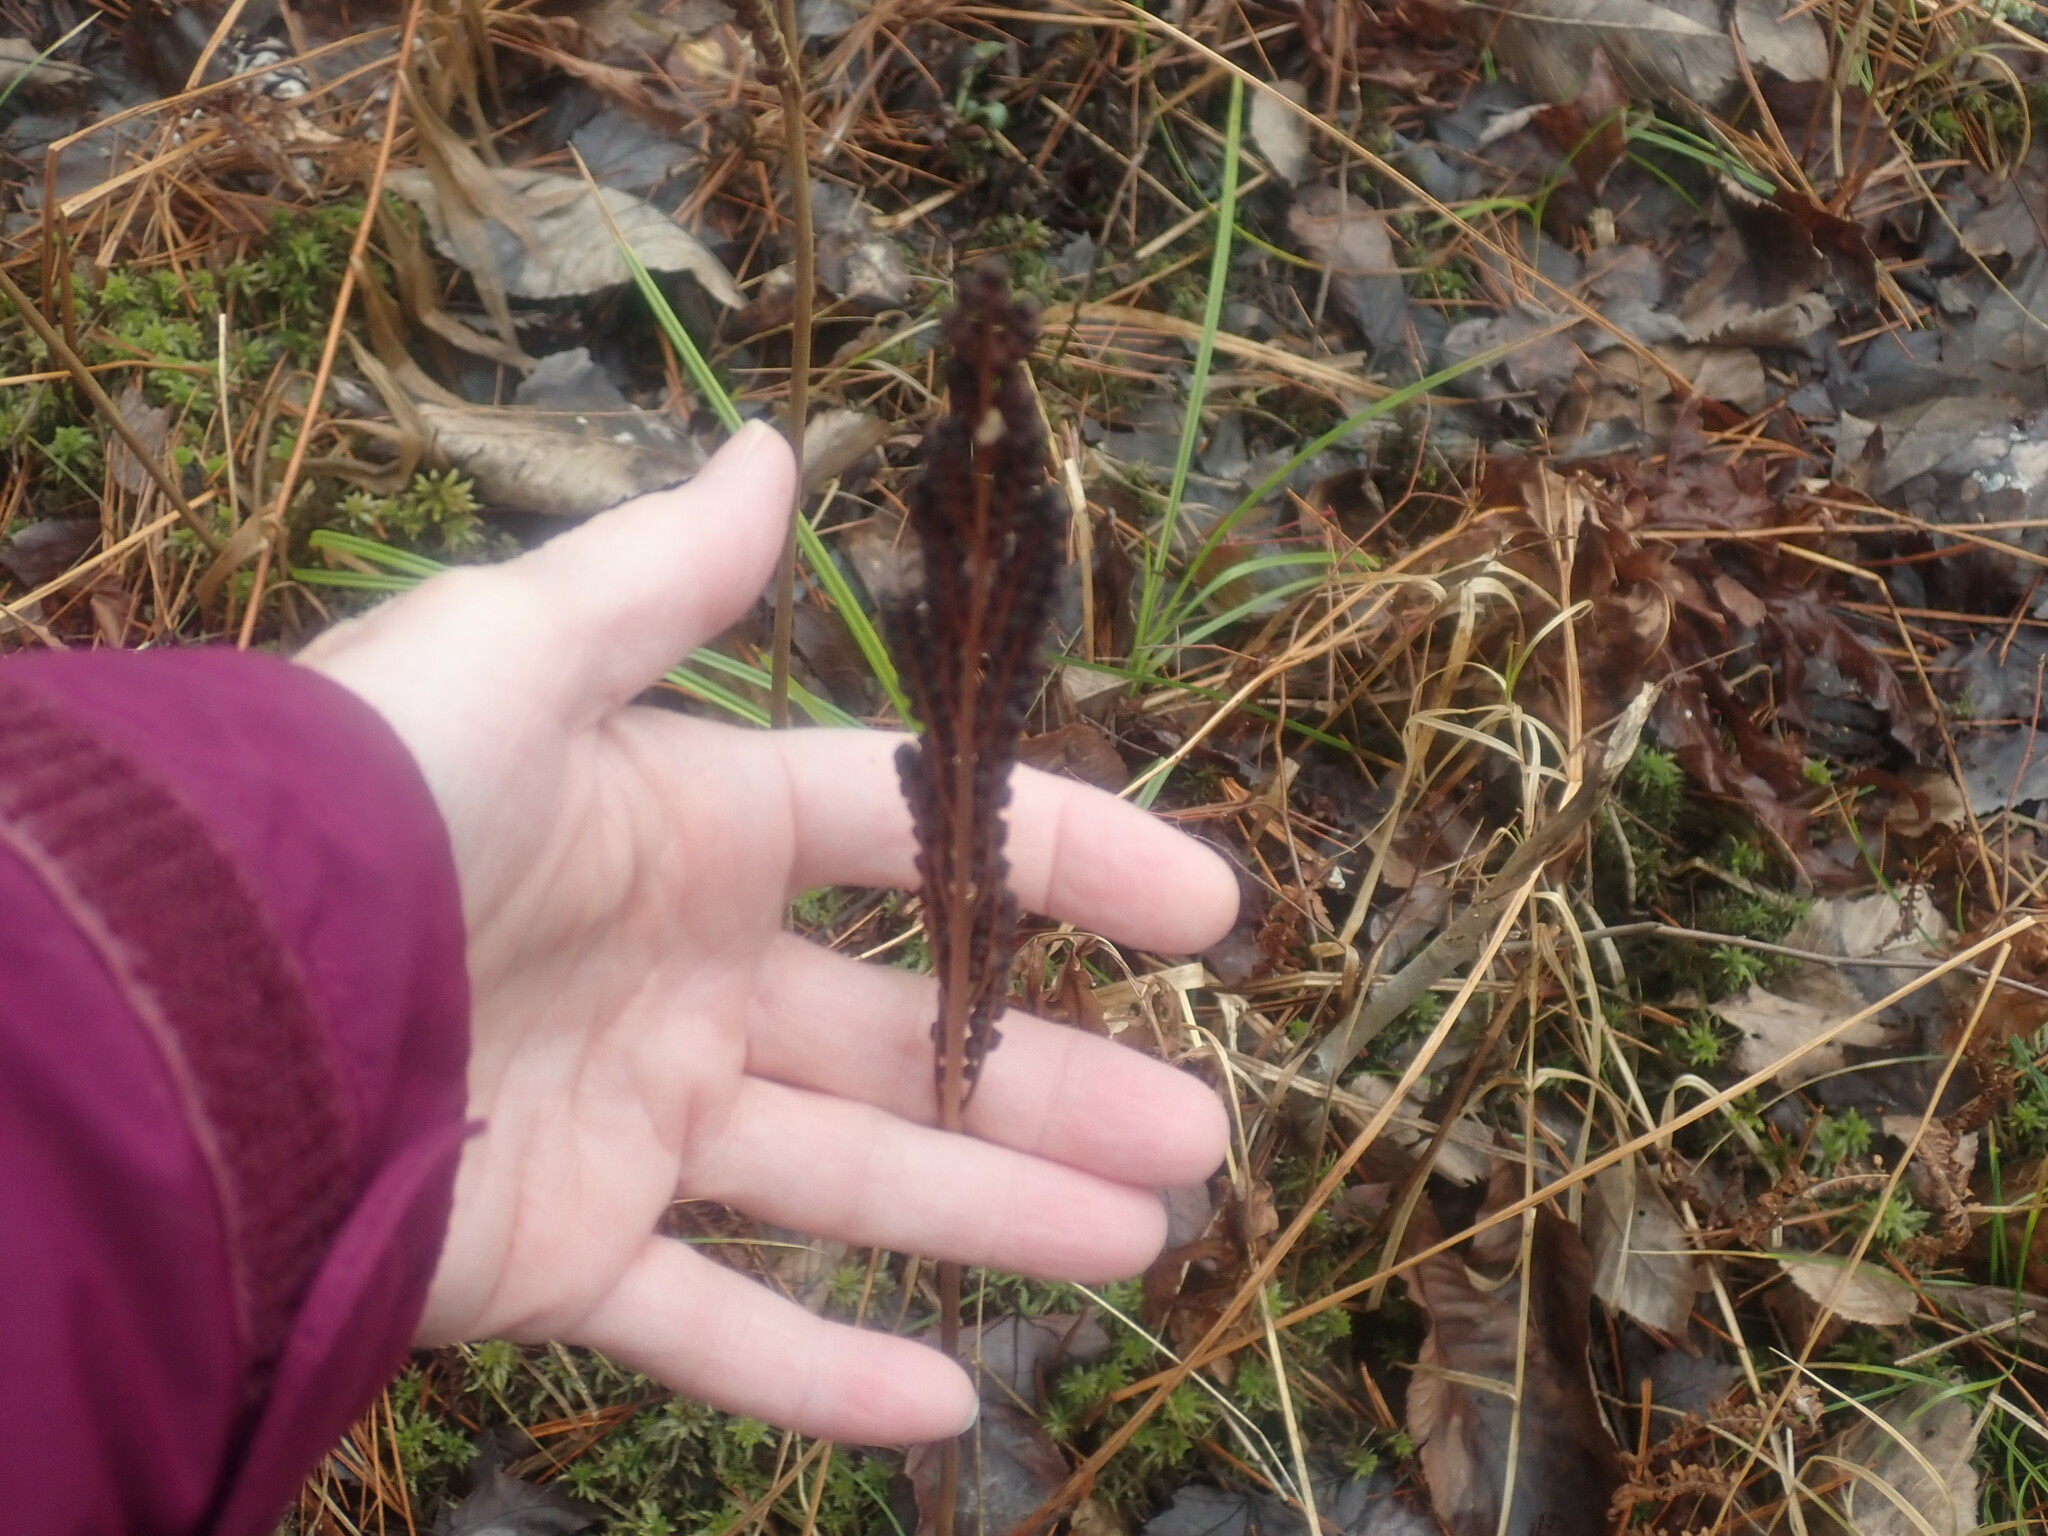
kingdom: Plantae
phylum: Tracheophyta
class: Polypodiopsida
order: Polypodiales
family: Onocleaceae
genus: Onoclea
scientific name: Onoclea sensibilis
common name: Sensitive fern
